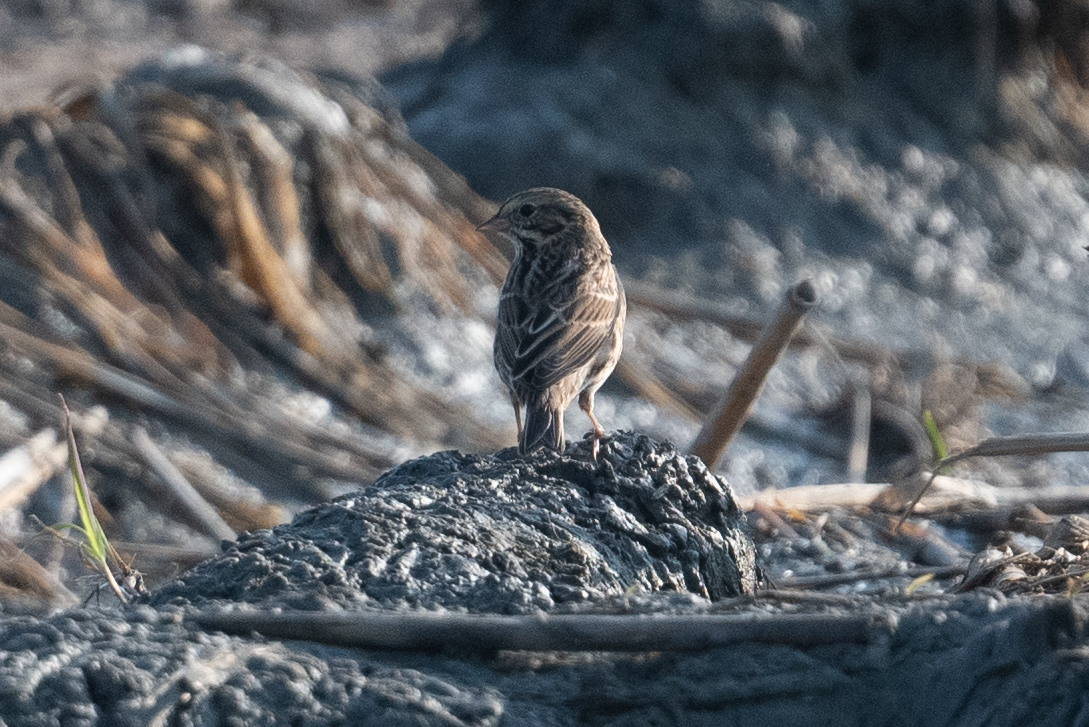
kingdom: Animalia
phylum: Chordata
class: Aves
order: Passeriformes
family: Passerellidae
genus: Passerculus
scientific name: Passerculus sandwichensis
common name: Savannah sparrow
